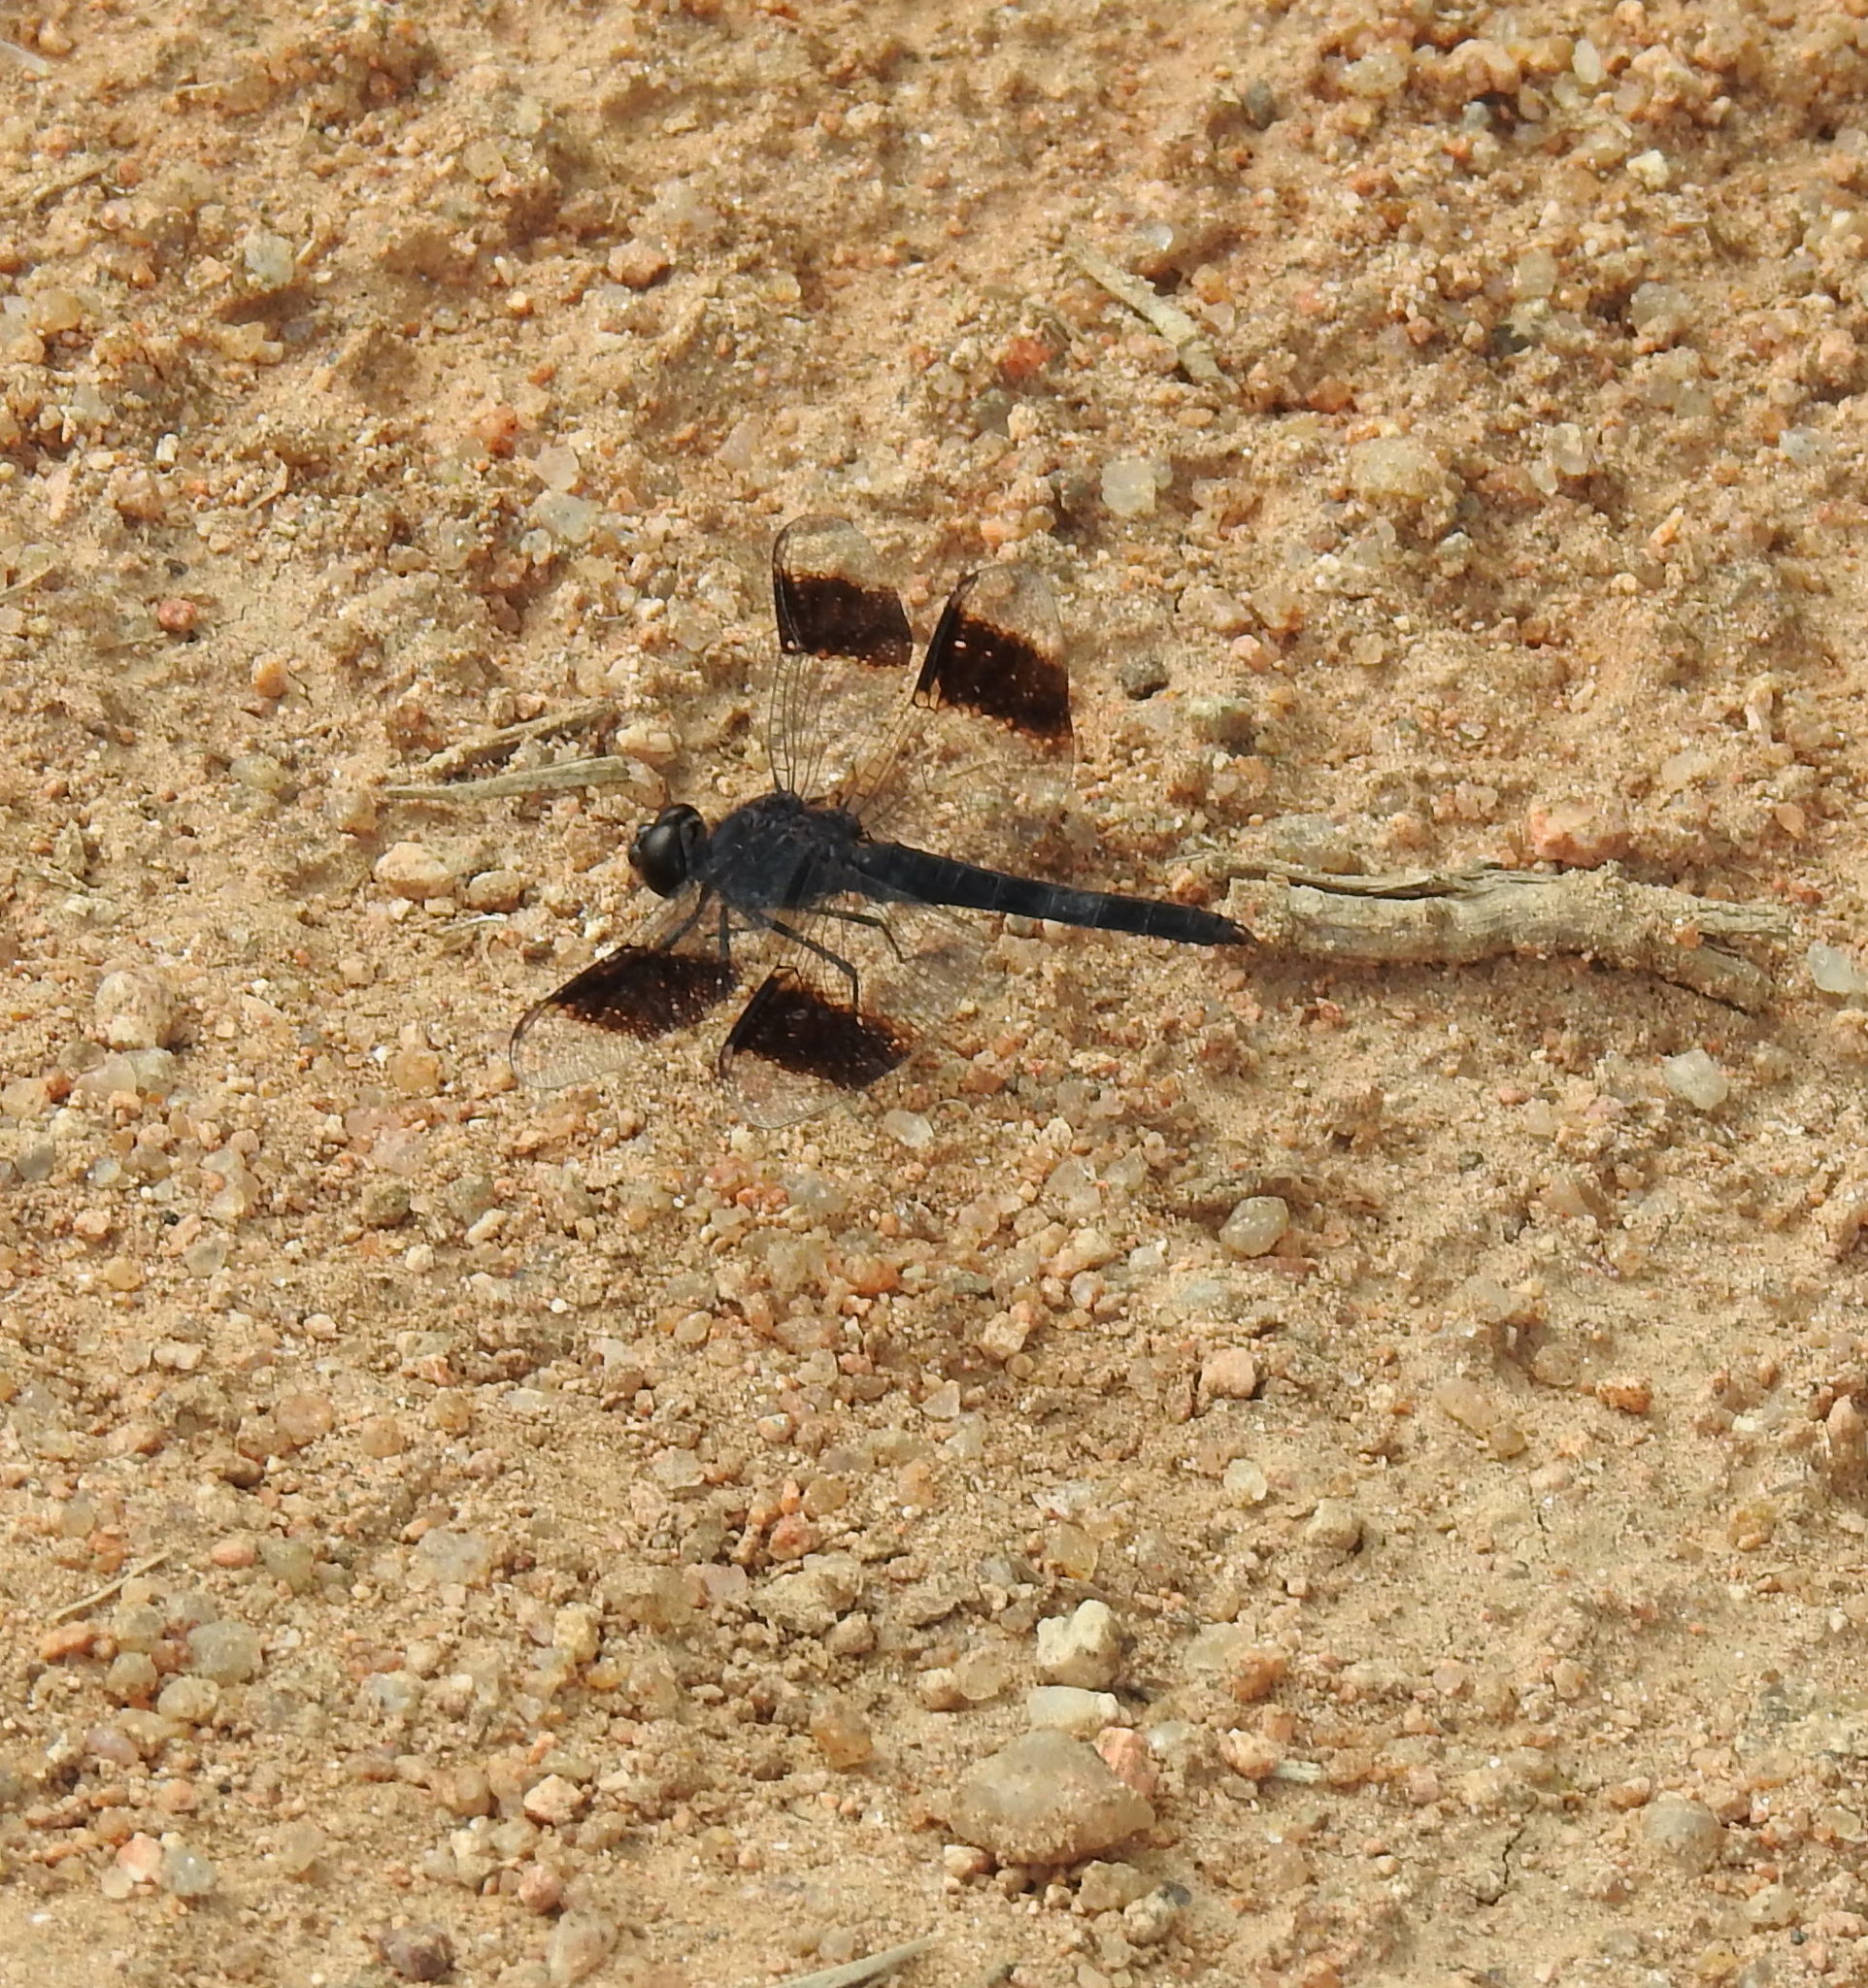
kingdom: Animalia
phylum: Arthropoda
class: Insecta
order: Odonata
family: Libellulidae
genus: Brachythemis
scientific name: Brachythemis leucosticta
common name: Banded groundling
